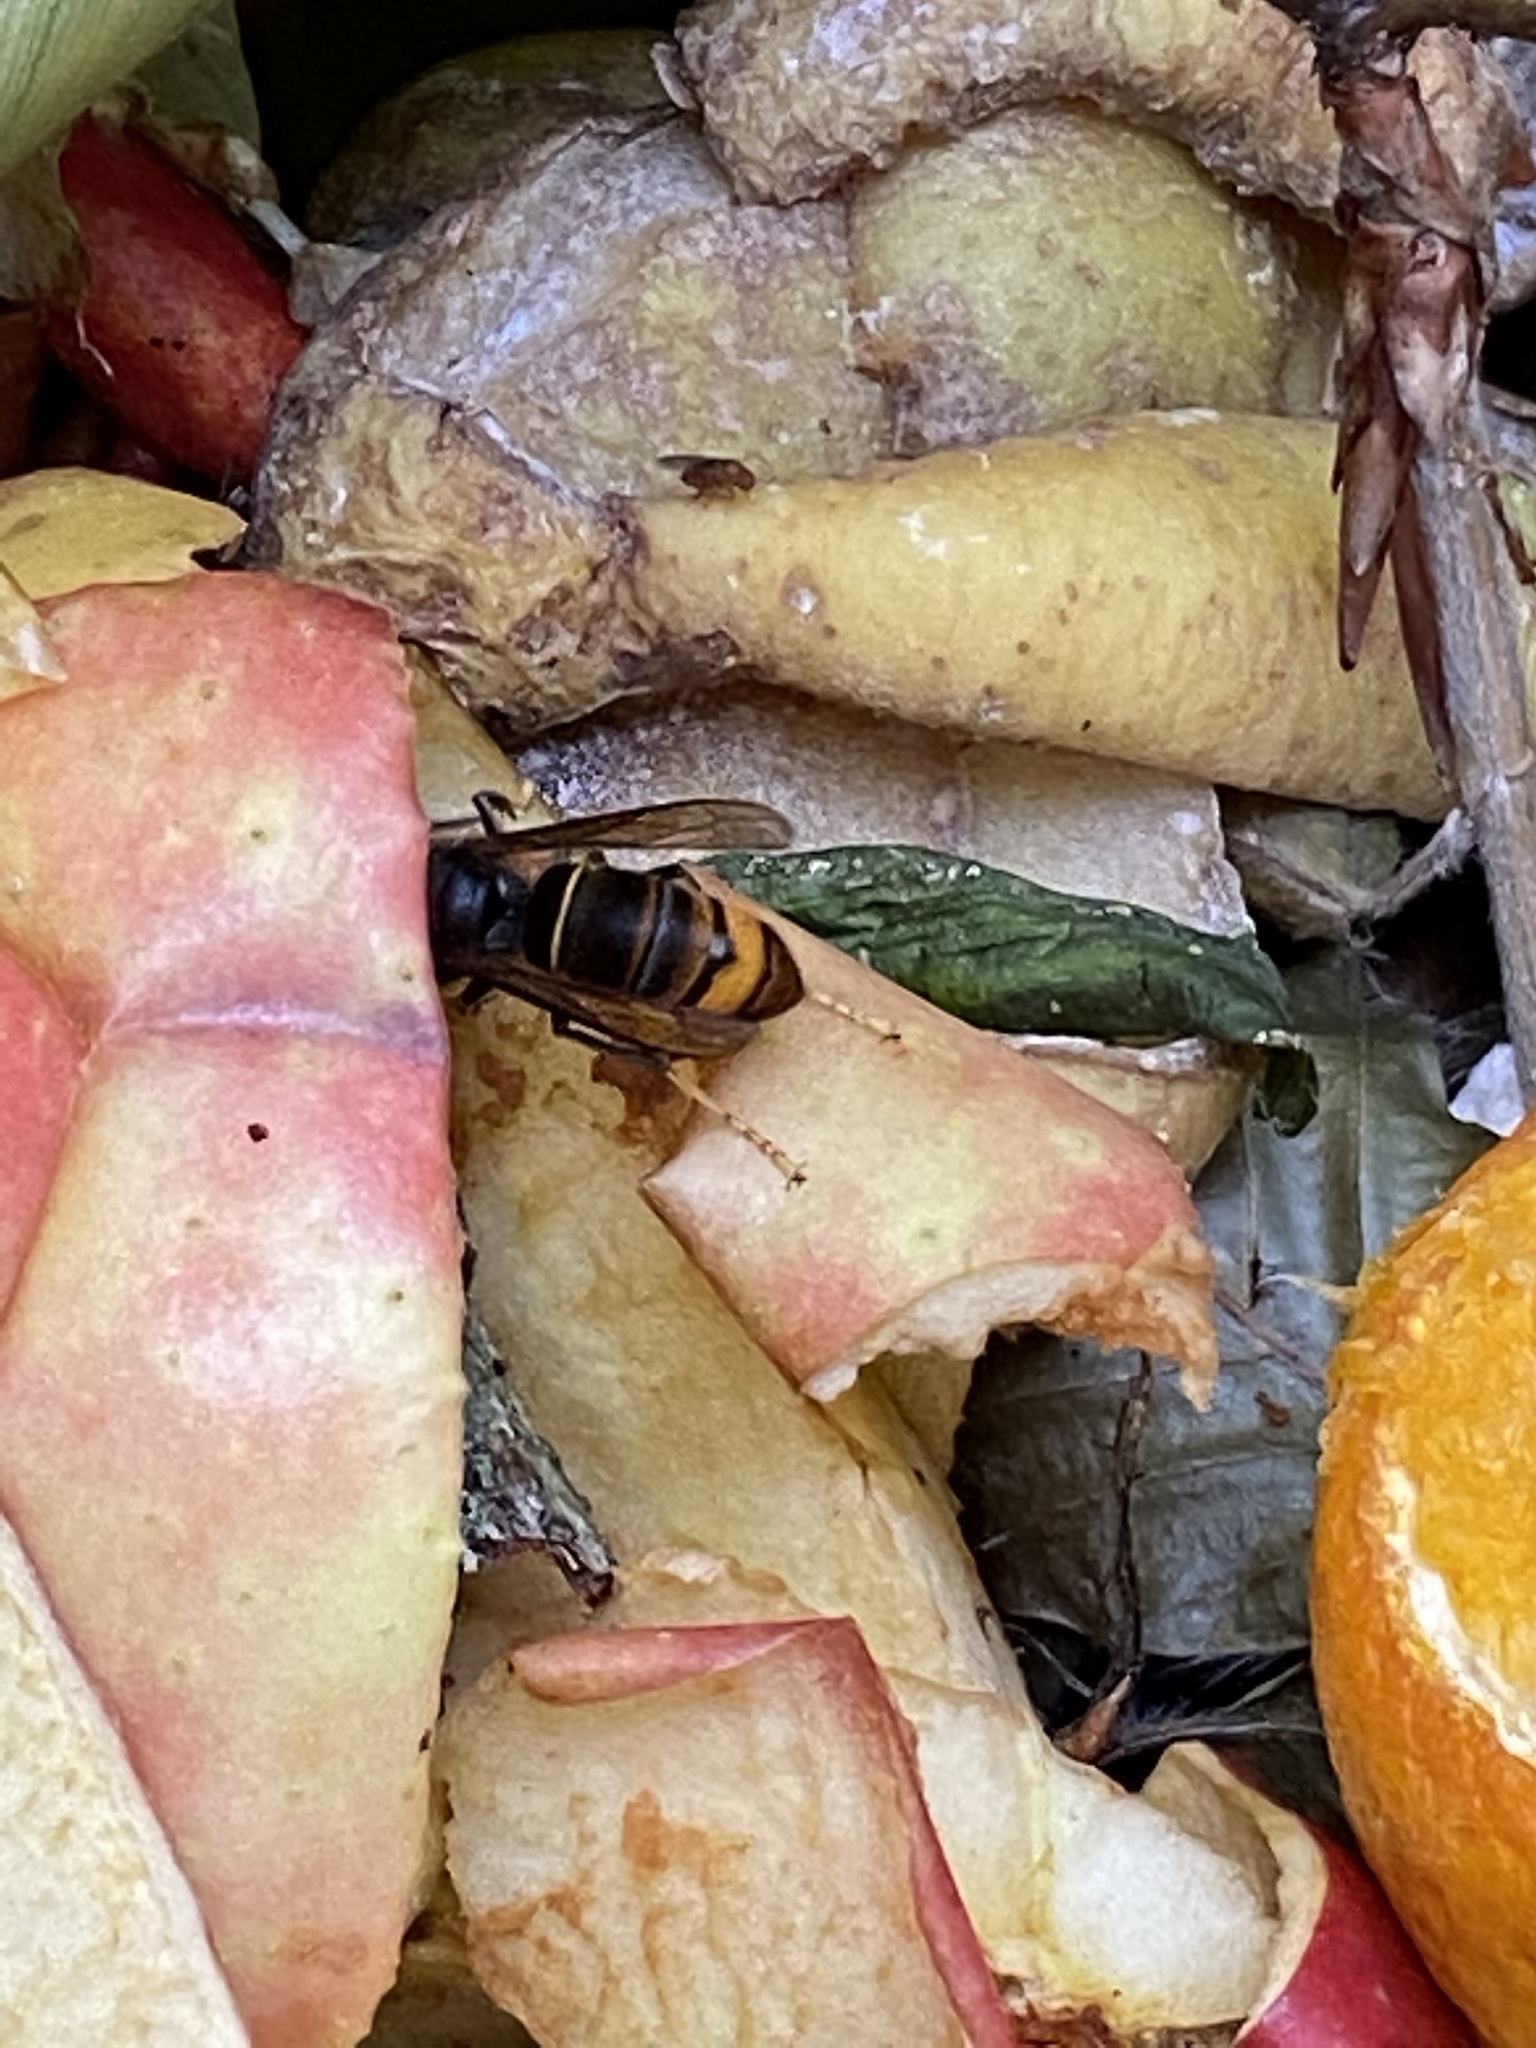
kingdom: Animalia
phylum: Arthropoda
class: Insecta
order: Hymenoptera
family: Vespidae
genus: Vespa
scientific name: Vespa velutina
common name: Asian hornet
